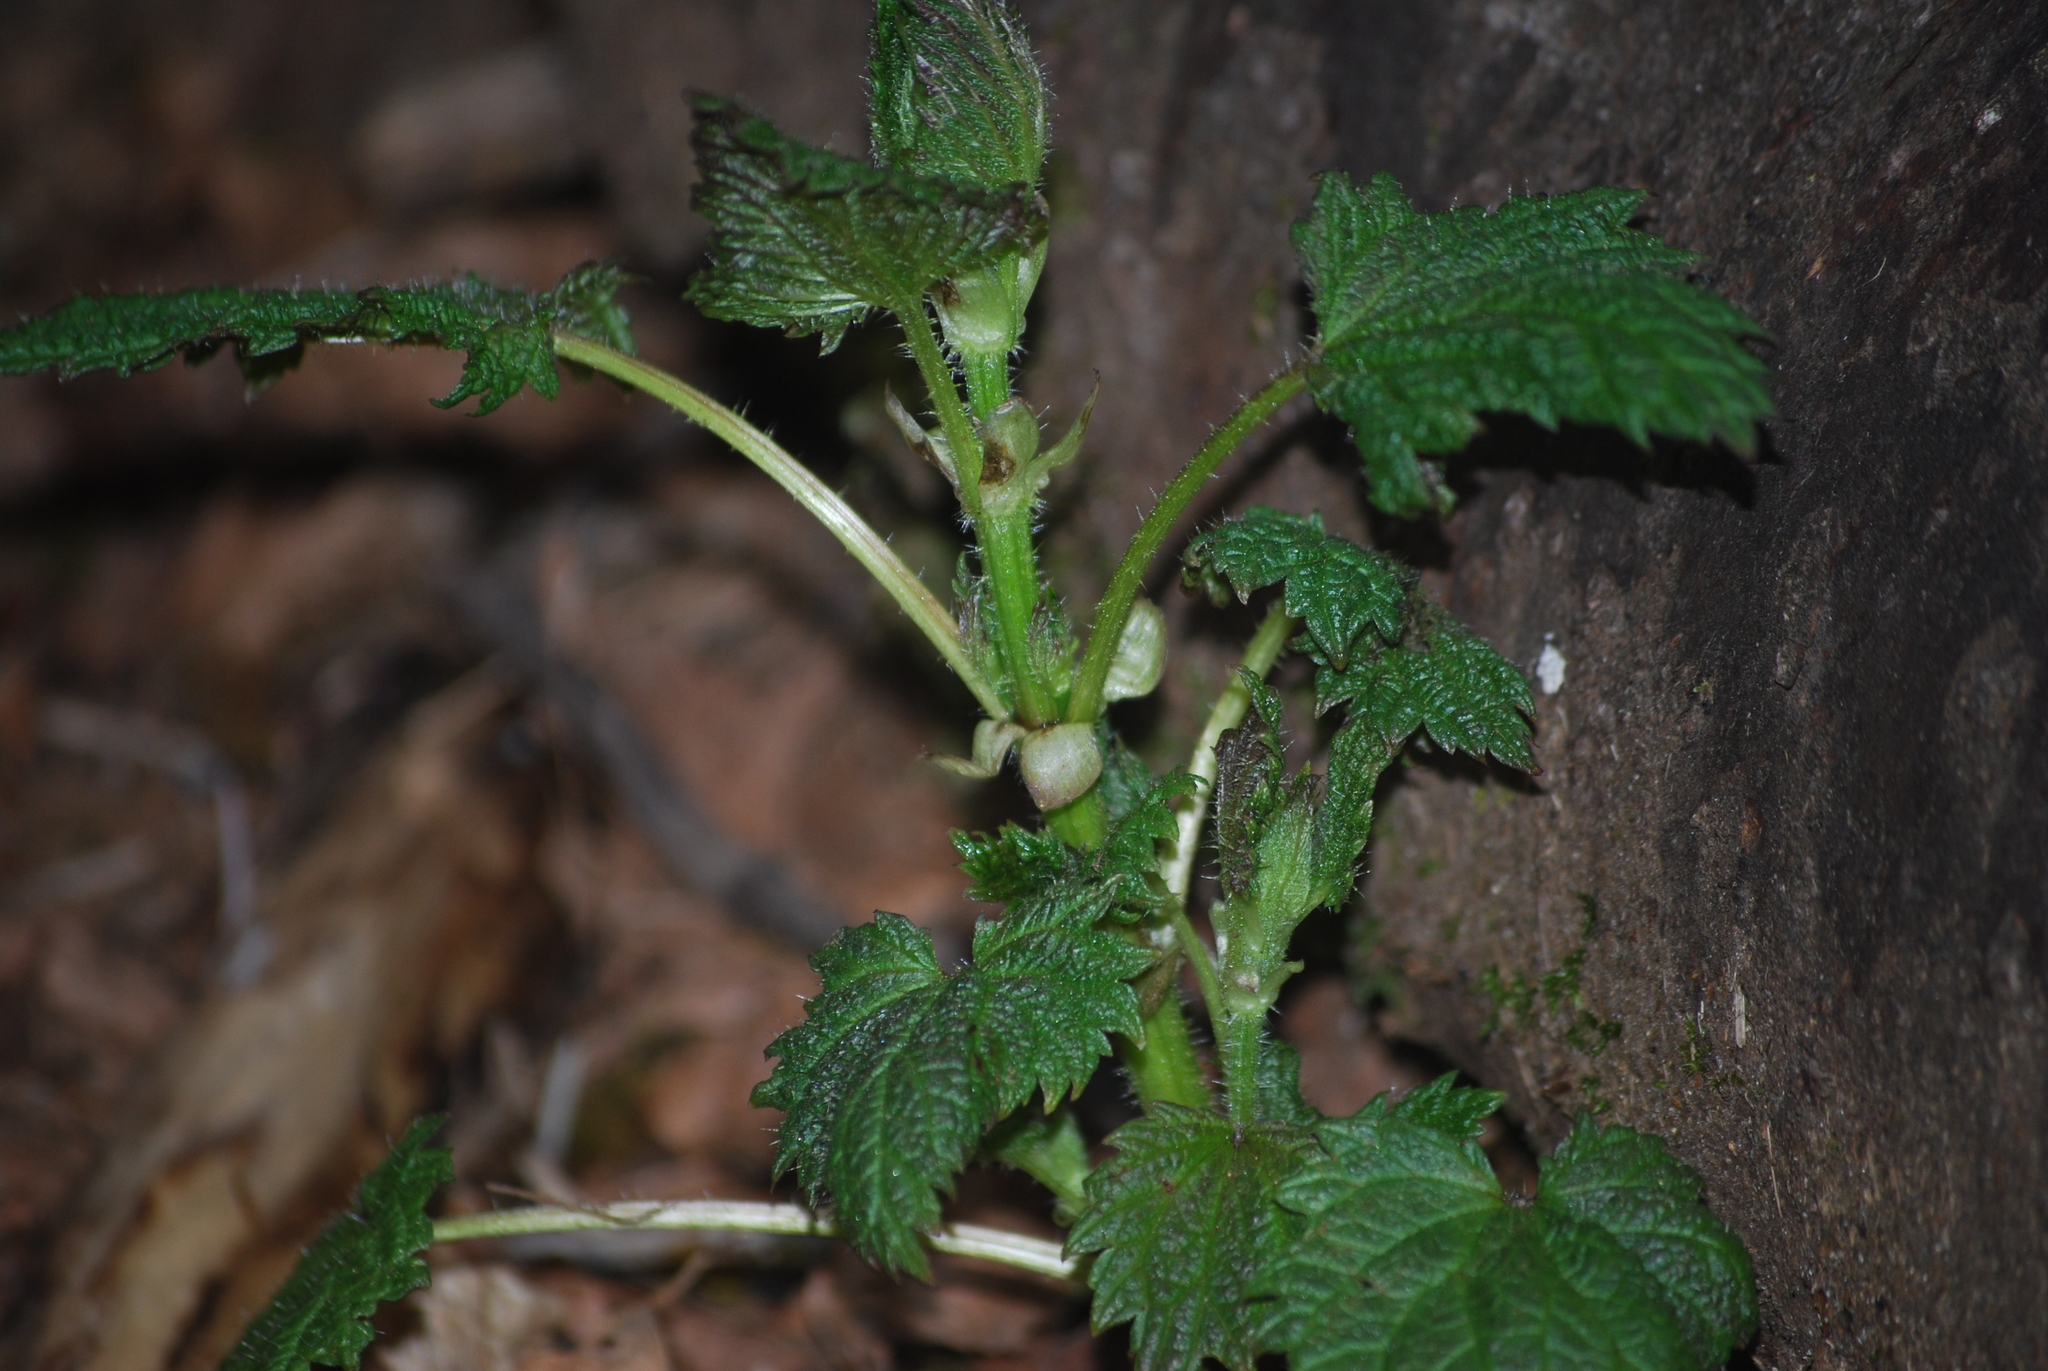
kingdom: Plantae
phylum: Tracheophyta
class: Magnoliopsida
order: Rosales
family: Urticaceae
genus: Urtica
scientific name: Urtica dioica
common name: Common nettle
